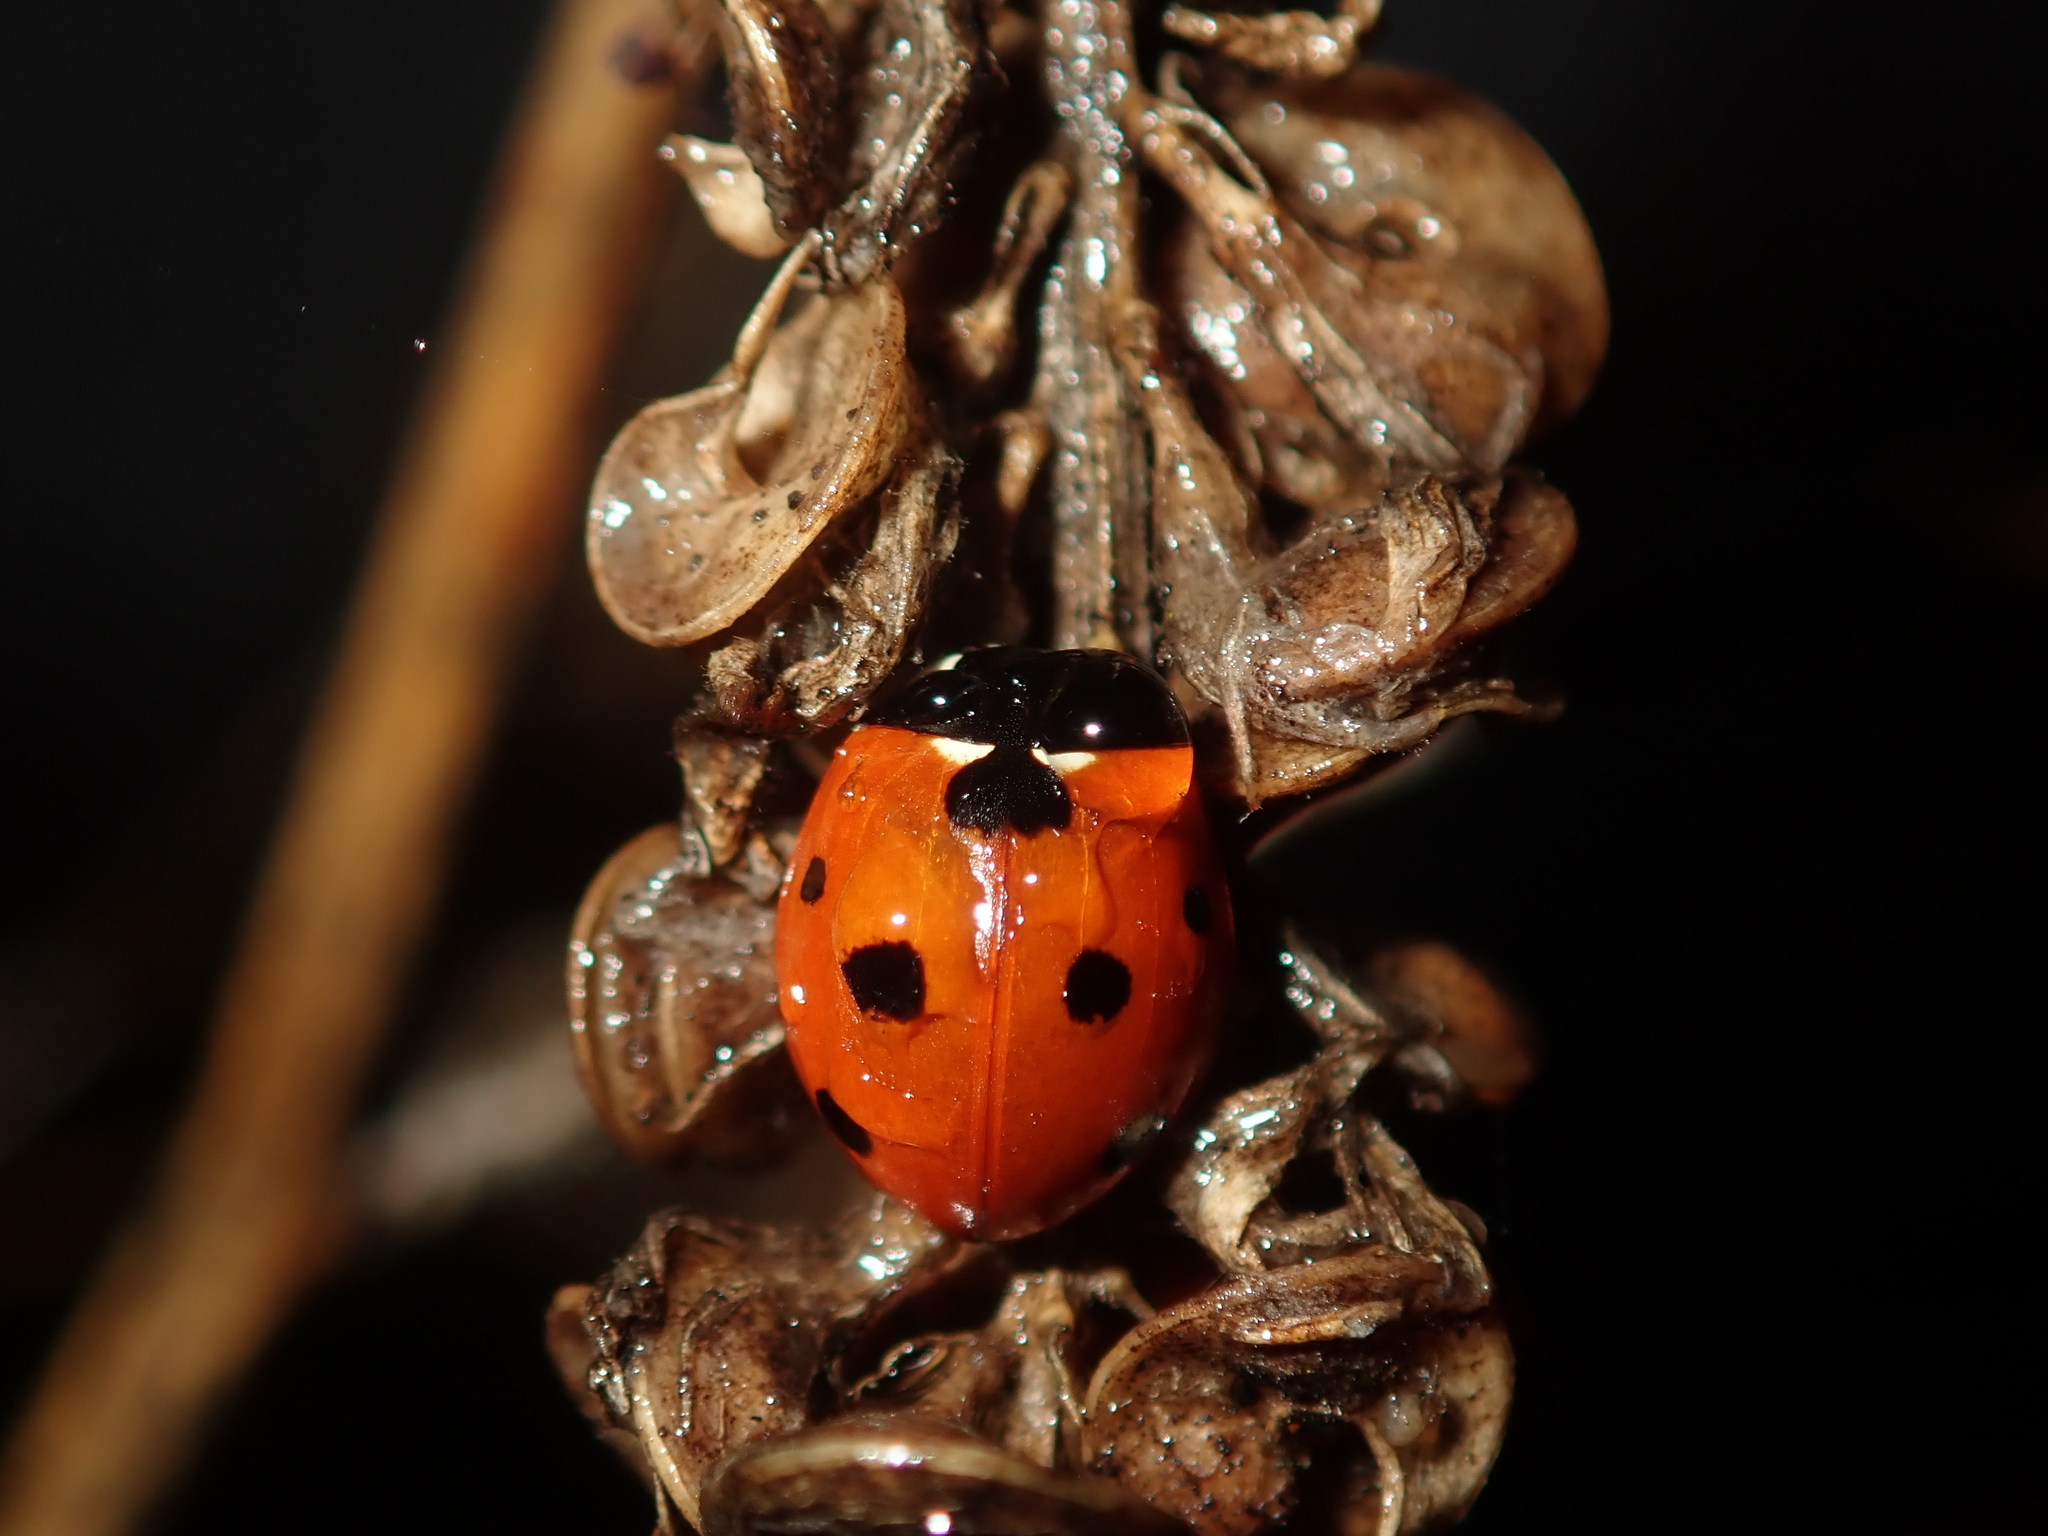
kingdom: Animalia
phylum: Arthropoda
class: Insecta
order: Coleoptera
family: Coccinellidae
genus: Coccinella
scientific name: Coccinella septempunctata
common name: Sevenspotted lady beetle
